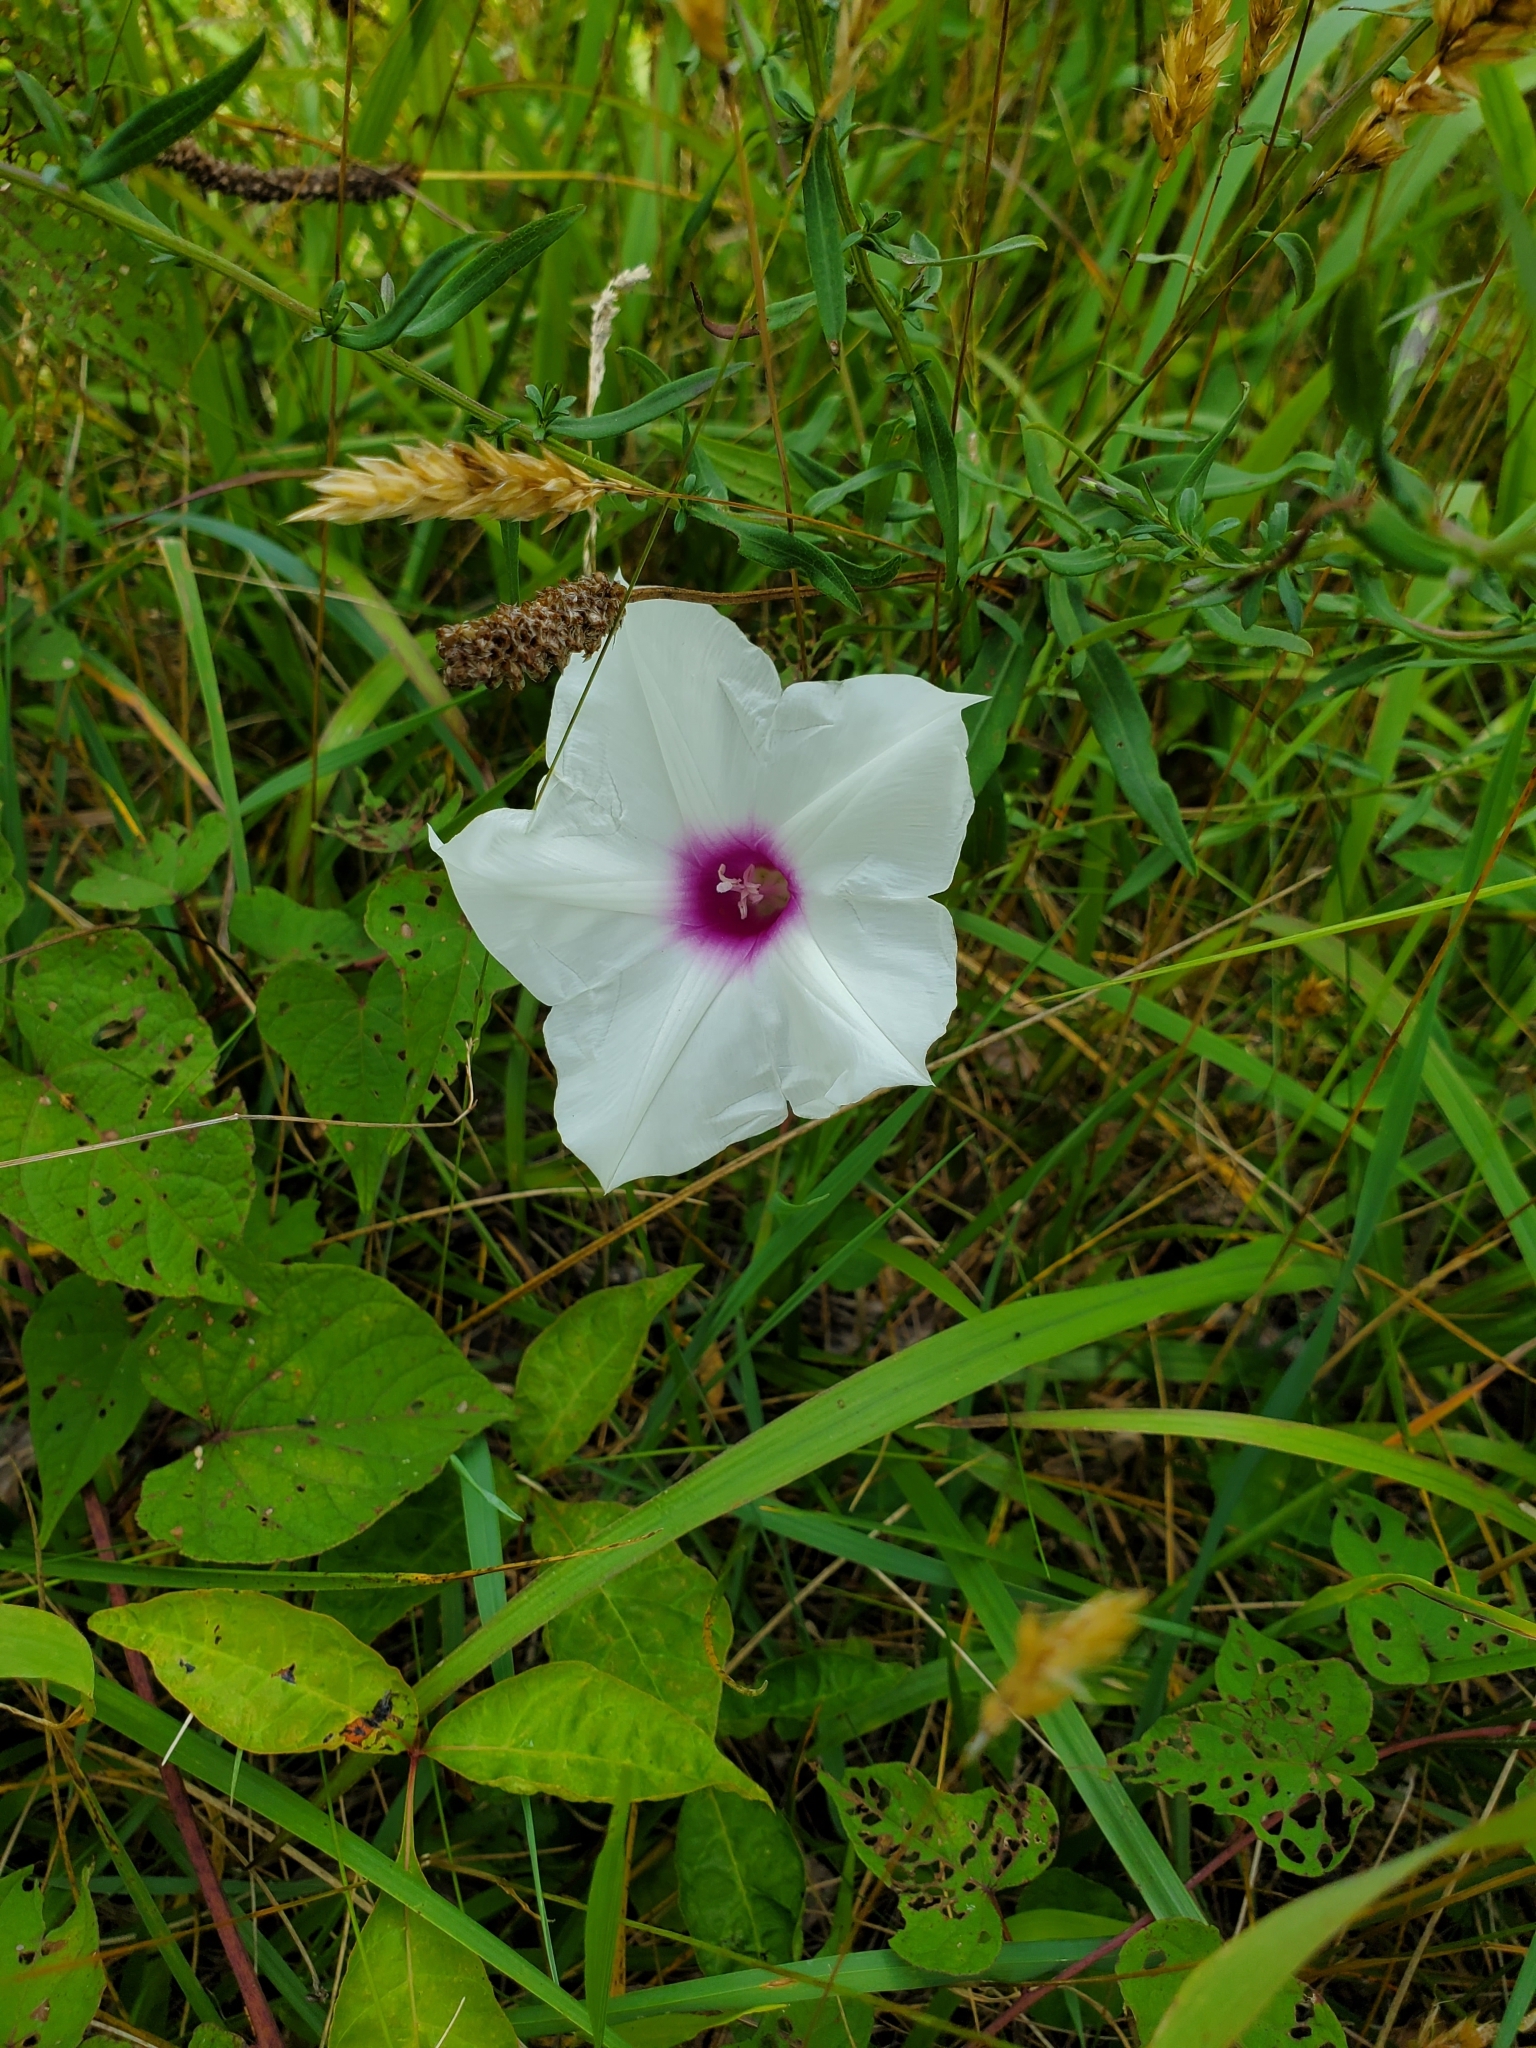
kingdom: Plantae
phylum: Tracheophyta
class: Magnoliopsida
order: Solanales
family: Convolvulaceae
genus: Ipomoea
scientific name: Ipomoea pandurata
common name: Man-of-the-earth
